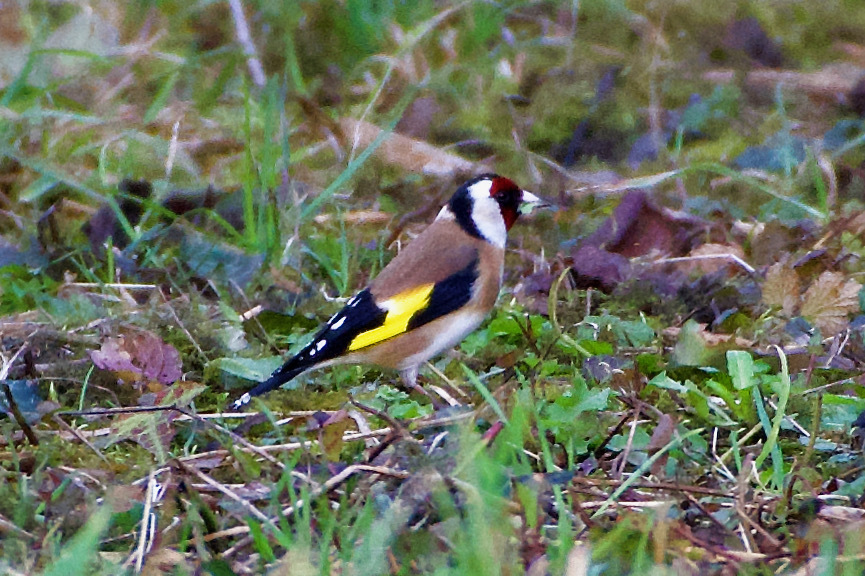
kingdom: Animalia
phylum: Chordata
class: Aves
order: Passeriformes
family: Fringillidae
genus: Carduelis
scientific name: Carduelis carduelis
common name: European goldfinch
